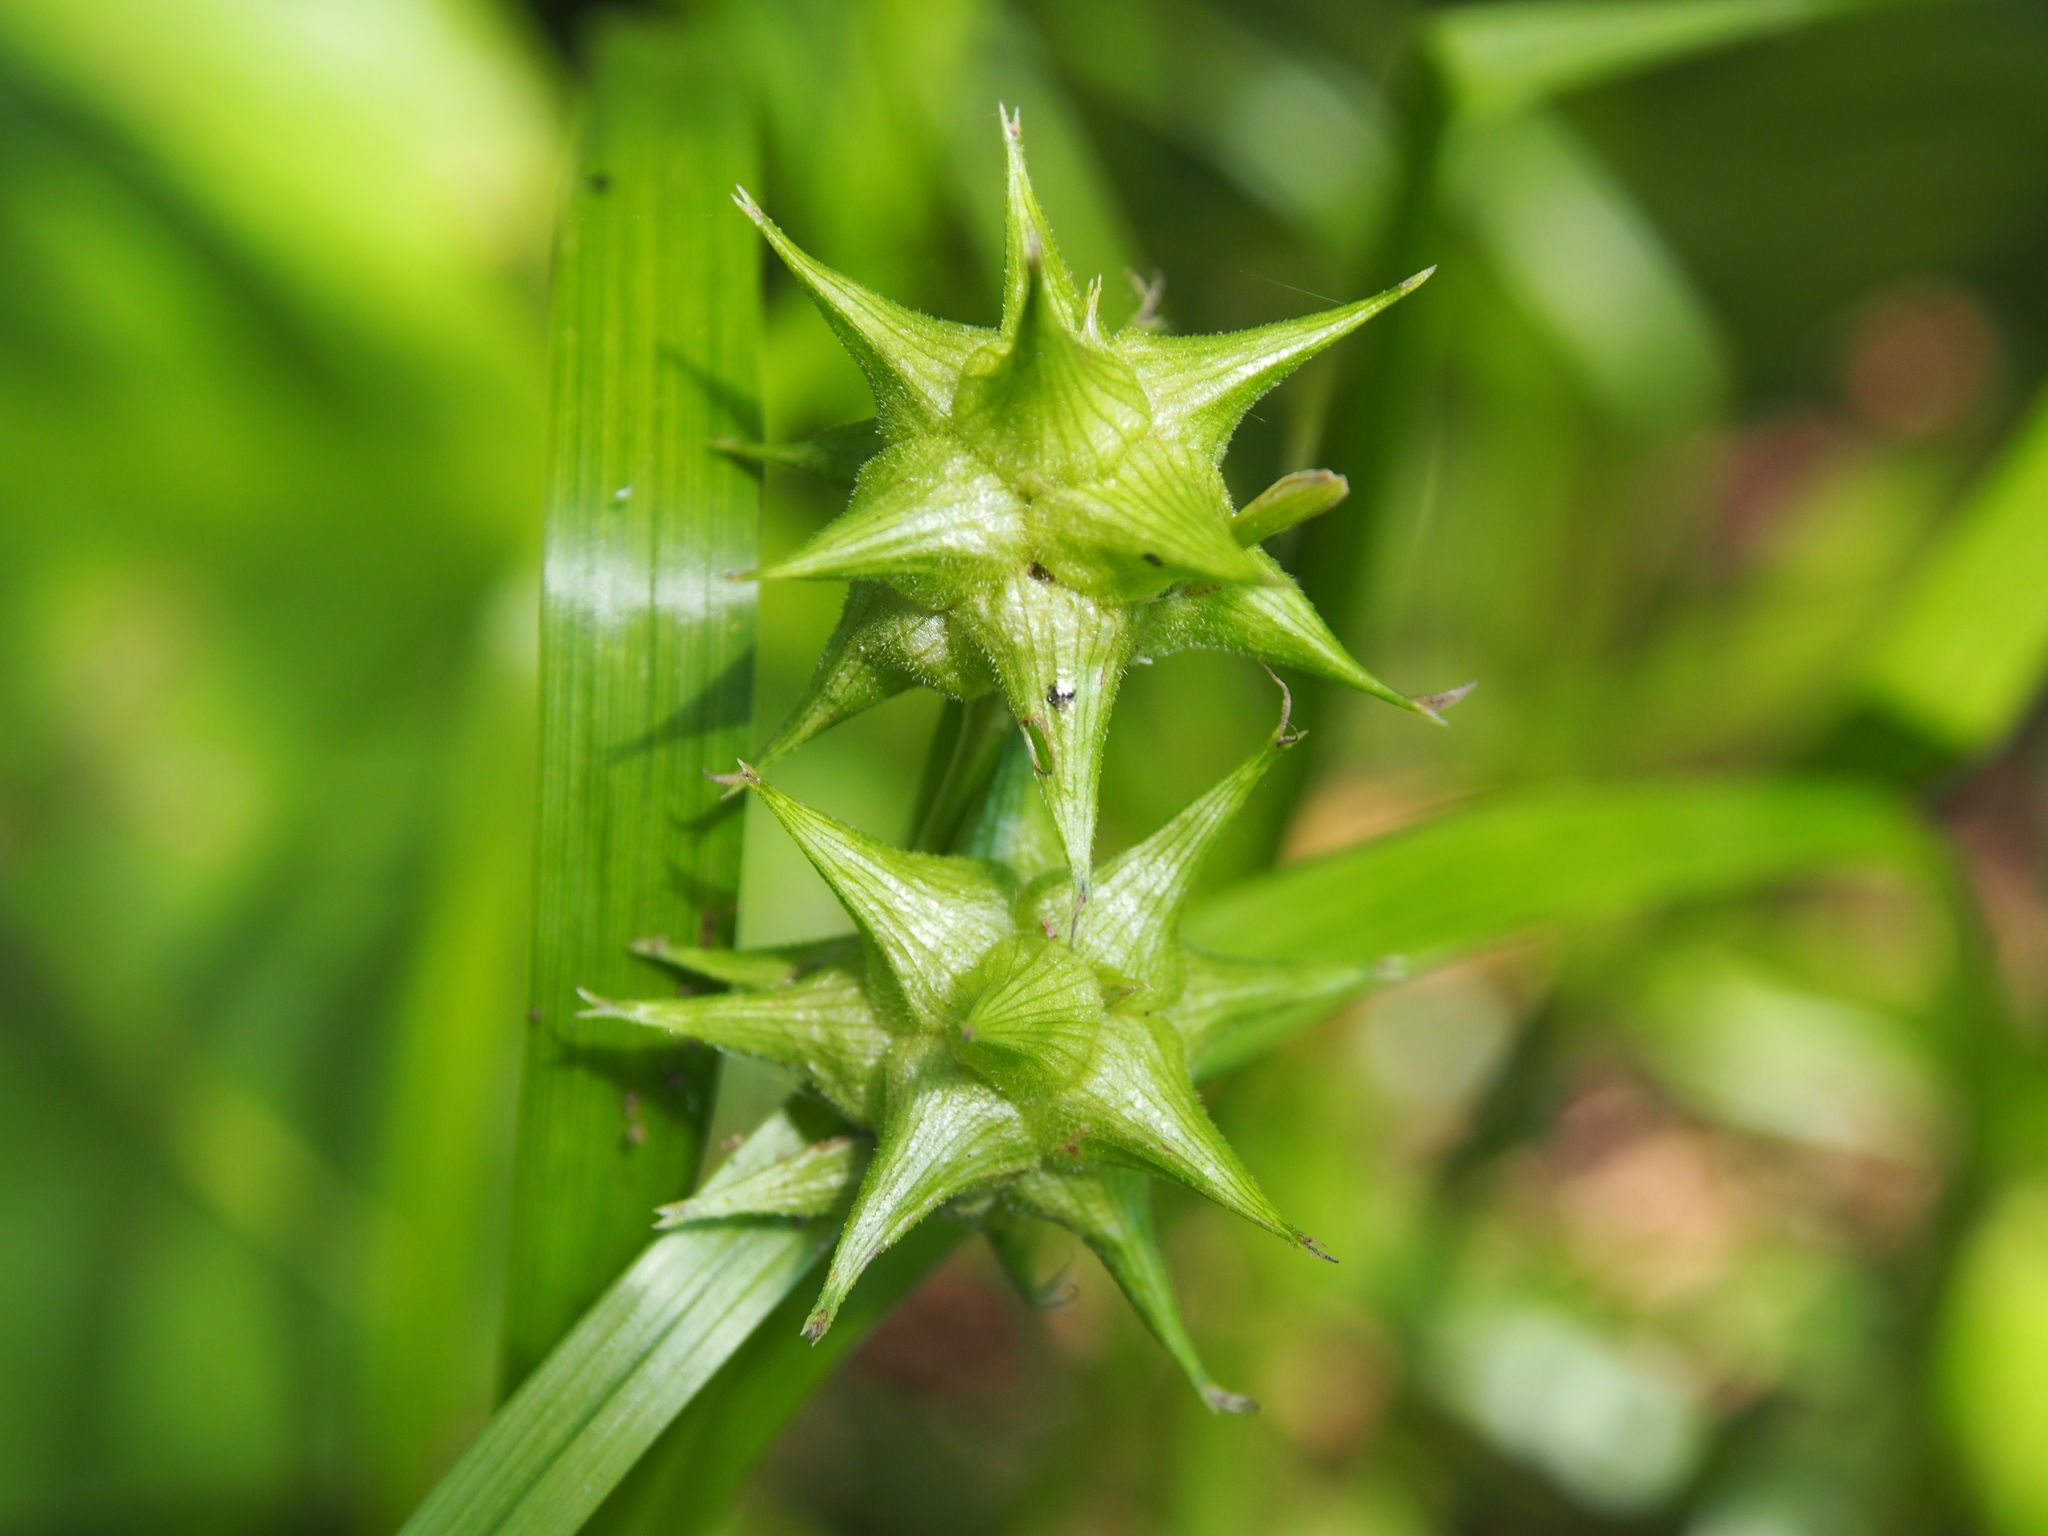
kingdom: Plantae
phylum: Tracheophyta
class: Liliopsida
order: Poales
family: Cyperaceae
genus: Carex
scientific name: Carex grayi
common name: Asa gray's sedge
